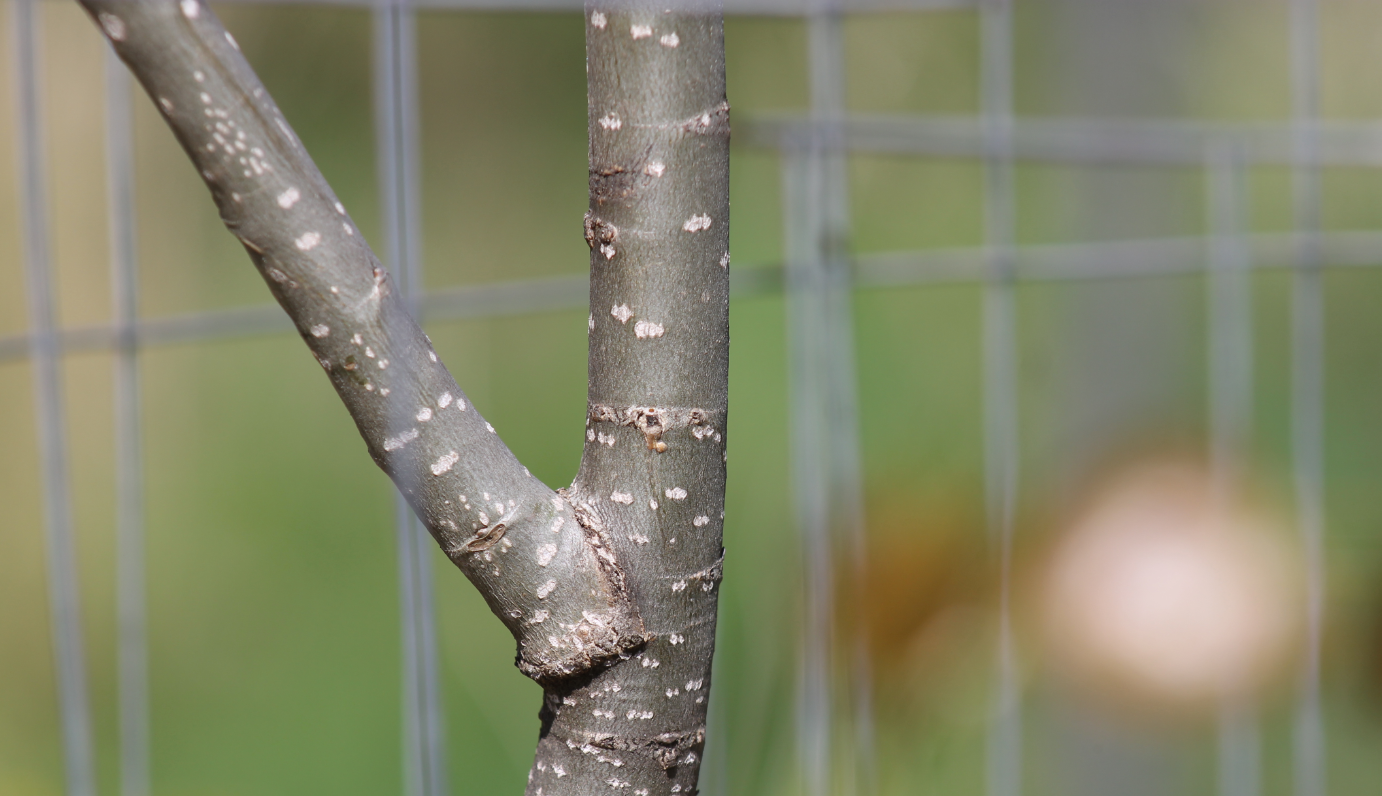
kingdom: Plantae
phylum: Tracheophyta
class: Magnoliopsida
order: Malpighiales
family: Salicaceae
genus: Populus
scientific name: Populus deltoides
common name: Eastern cottonwood
